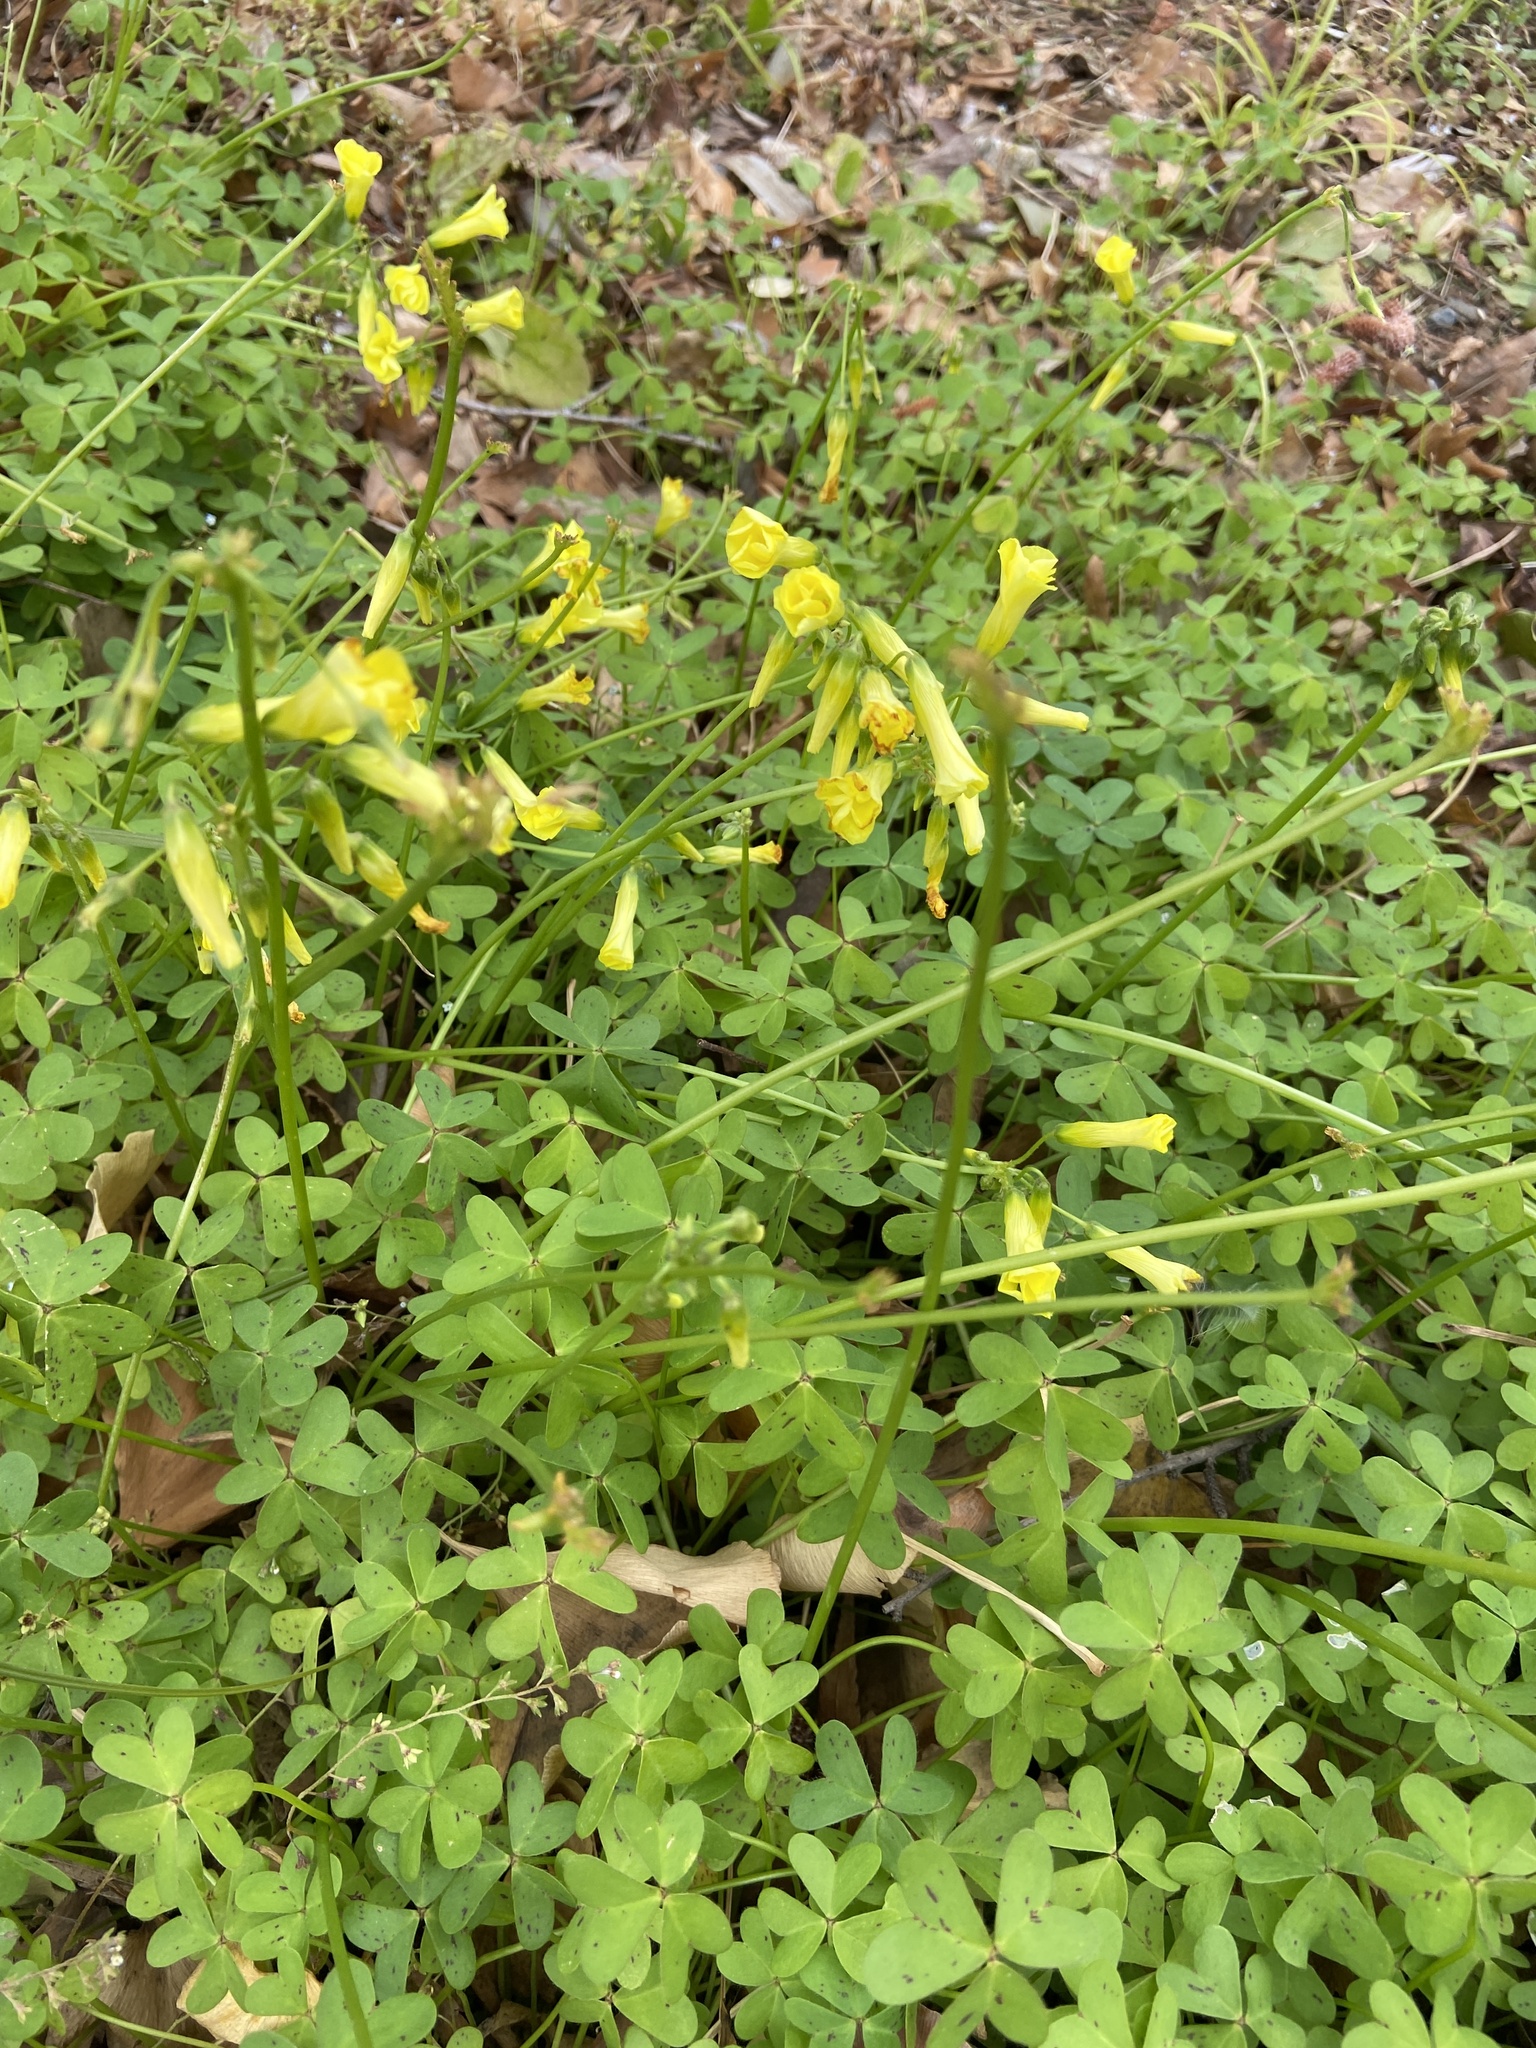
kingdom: Plantae
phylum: Tracheophyta
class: Magnoliopsida
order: Oxalidales
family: Oxalidaceae
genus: Oxalis
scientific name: Oxalis pes-caprae
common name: Bermuda-buttercup
